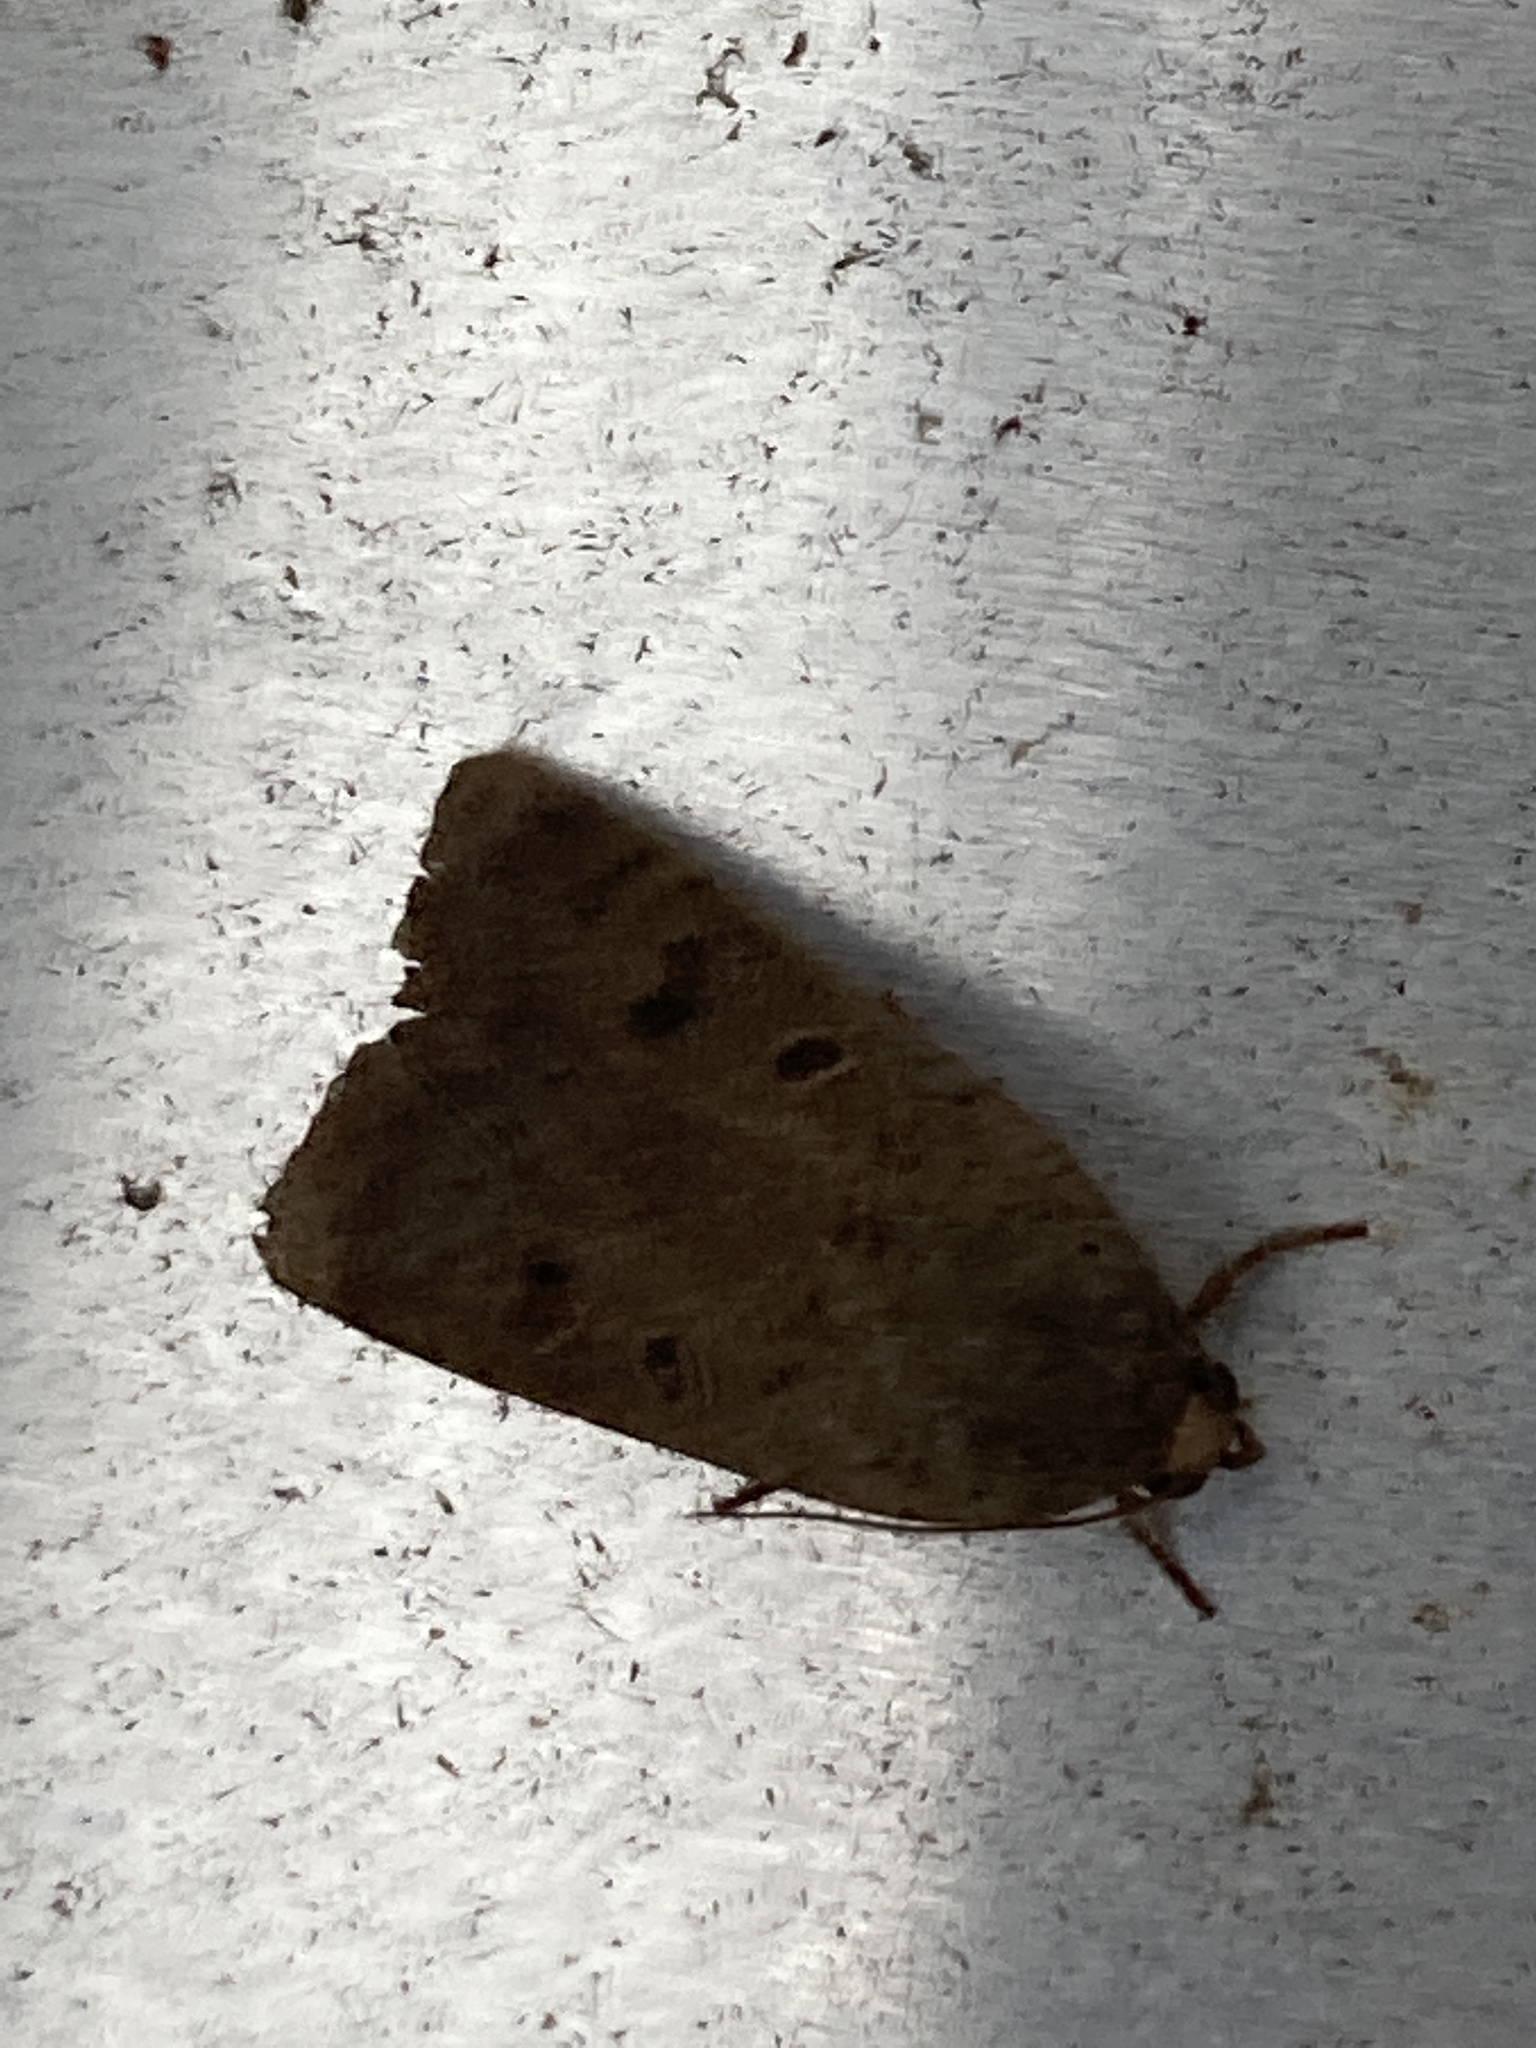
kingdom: Animalia
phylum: Arthropoda
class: Insecta
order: Lepidoptera
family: Noctuidae
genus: Noctua
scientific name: Noctua comes
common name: Lesser yellow underwing
